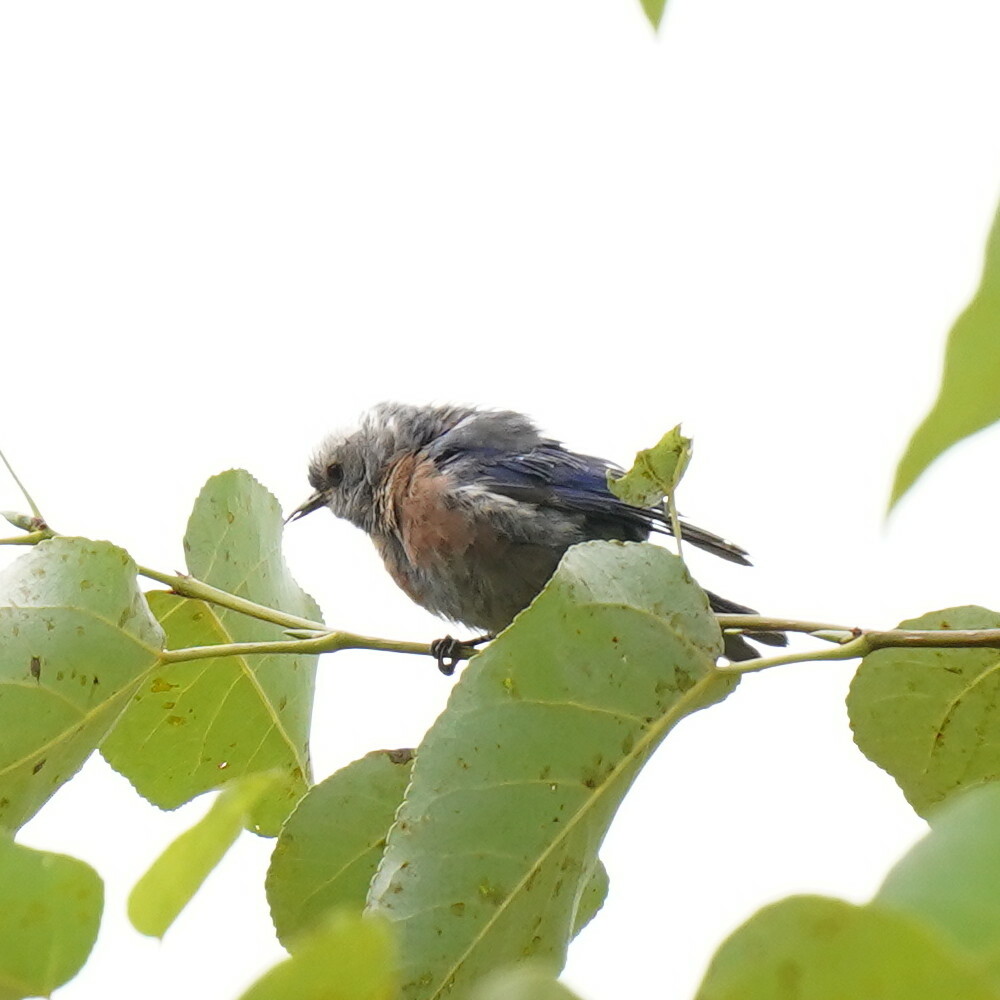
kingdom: Animalia
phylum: Chordata
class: Aves
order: Passeriformes
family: Turdidae
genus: Sialia
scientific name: Sialia mexicana
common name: Western bluebird
